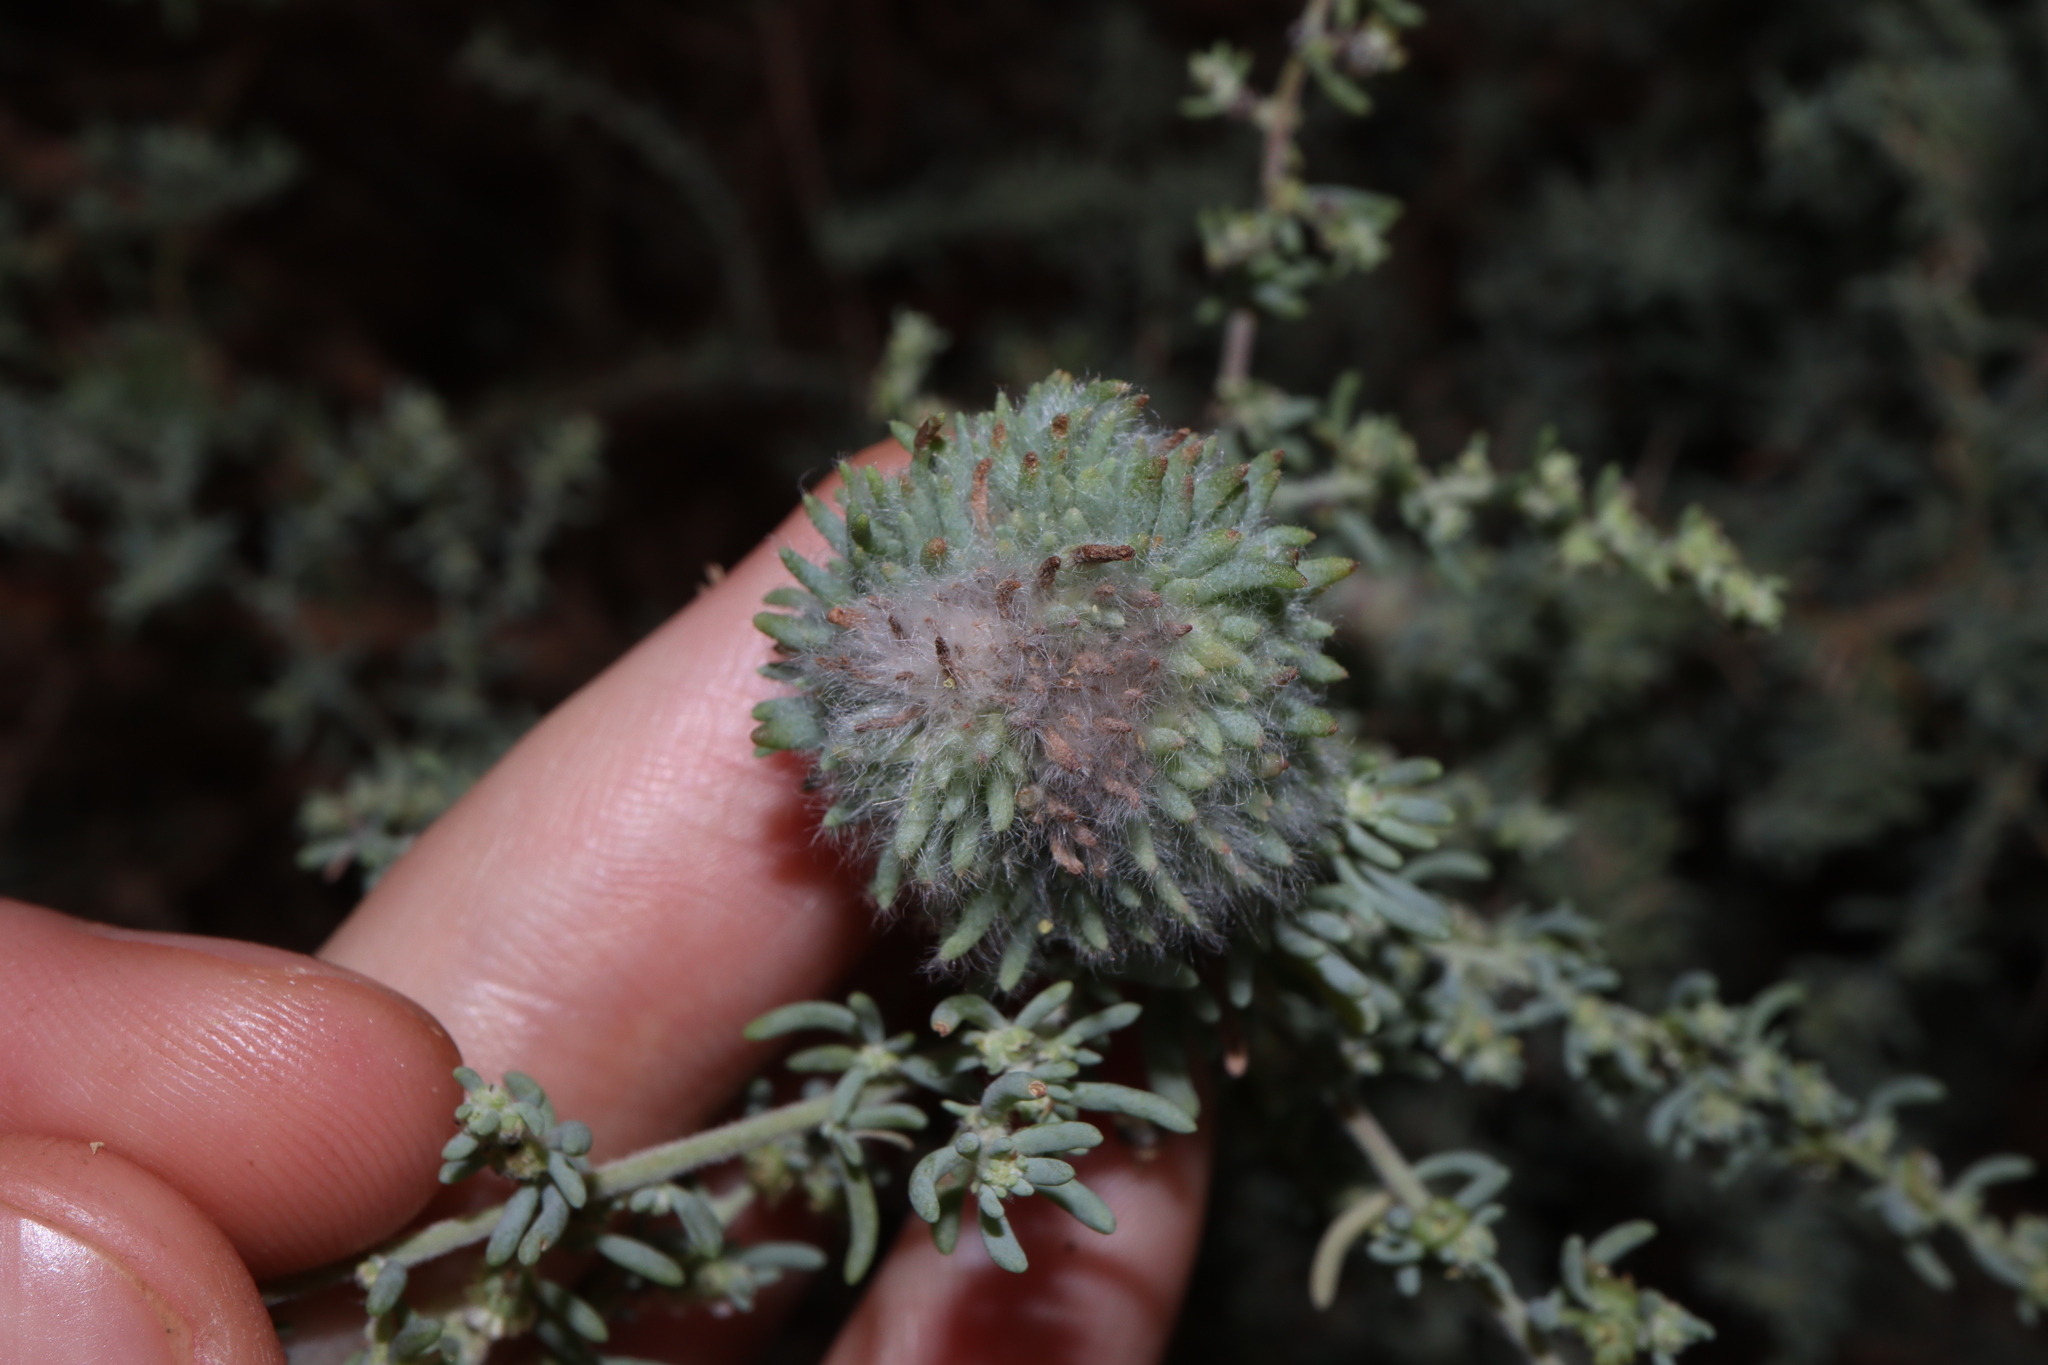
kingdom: Animalia
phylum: Arthropoda
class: Insecta
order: Diptera
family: Cecidomyiidae
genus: Dactylasioptera
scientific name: Dactylasioptera milnae
